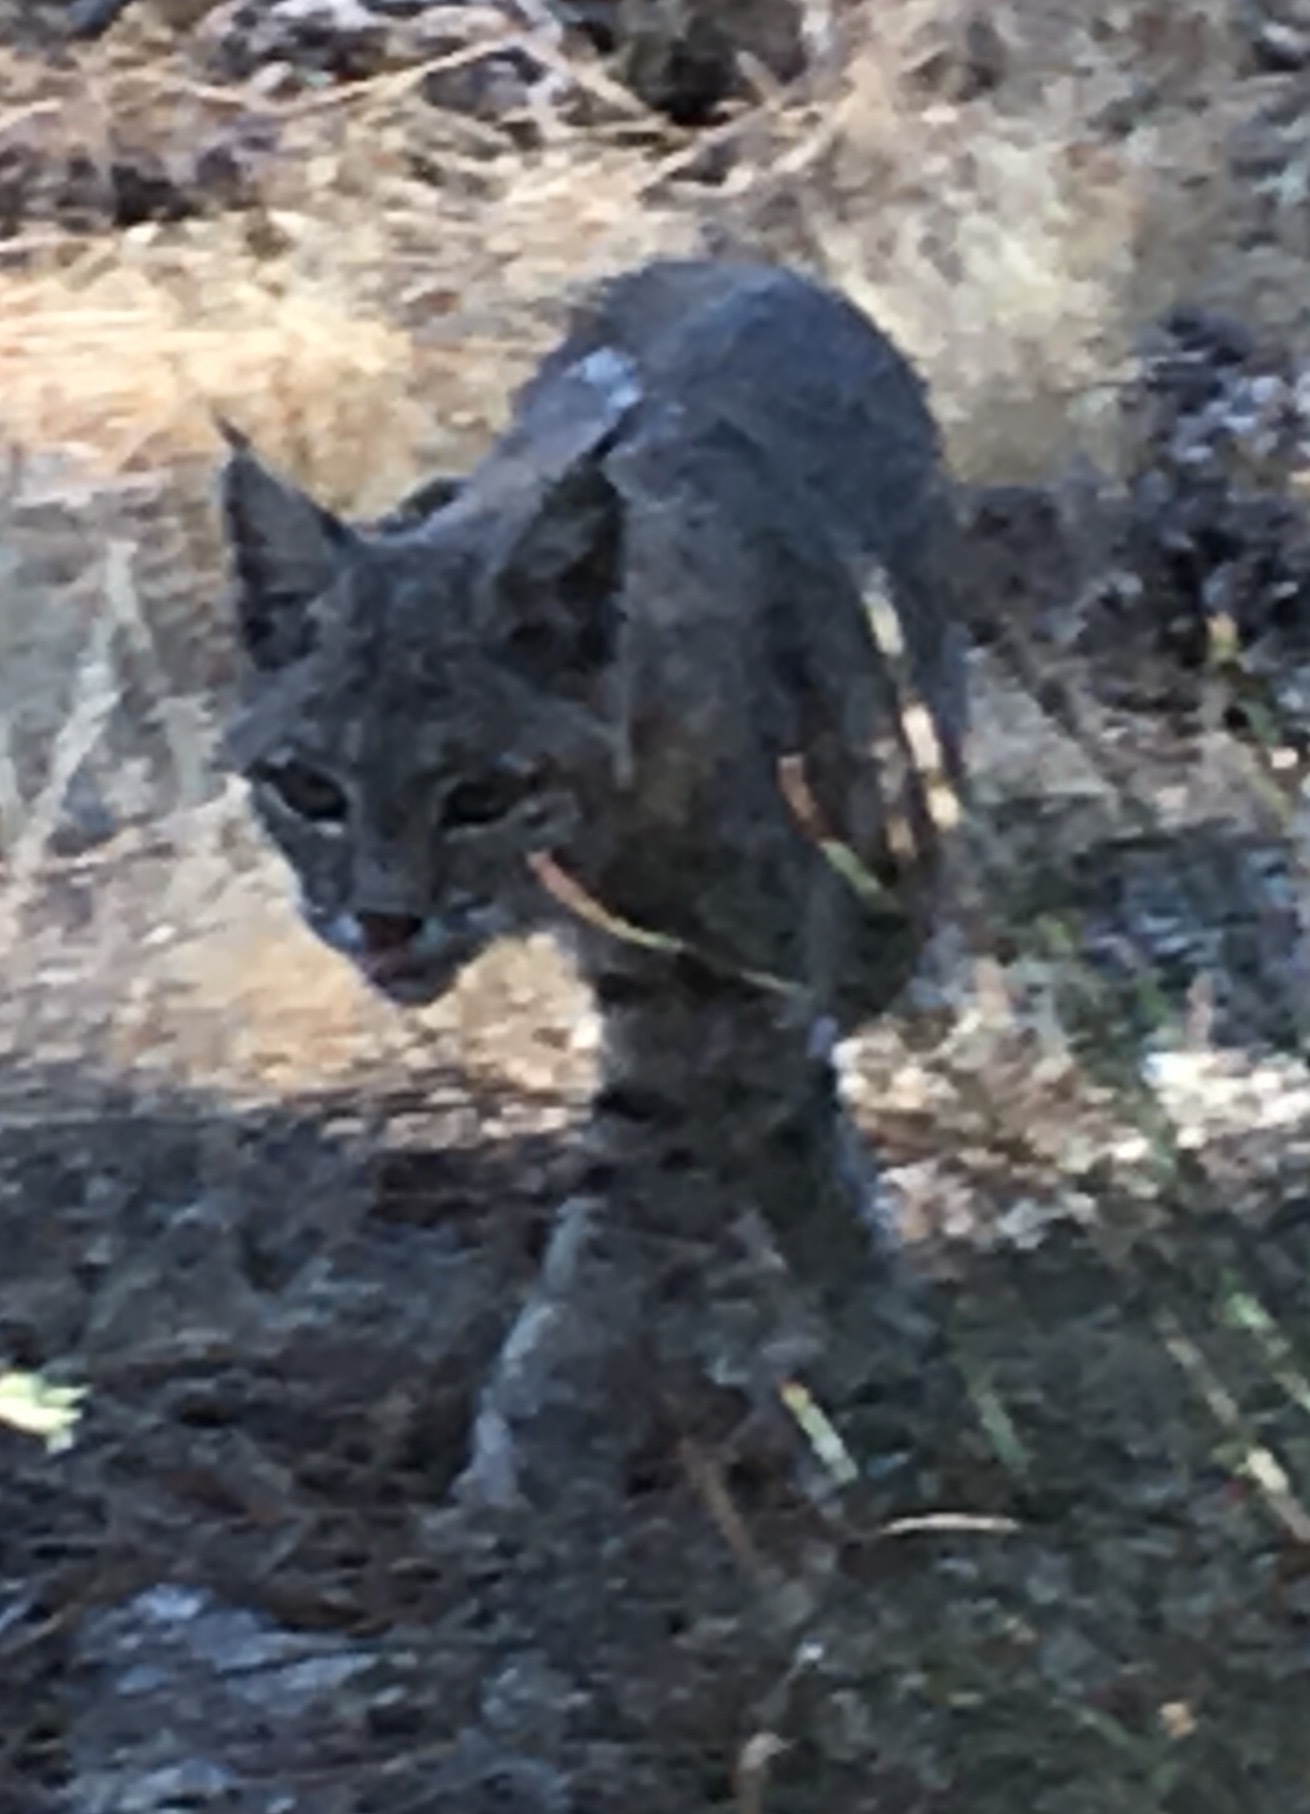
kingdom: Animalia
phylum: Chordata
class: Mammalia
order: Carnivora
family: Felidae
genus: Lynx
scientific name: Lynx rufus
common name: Bobcat
